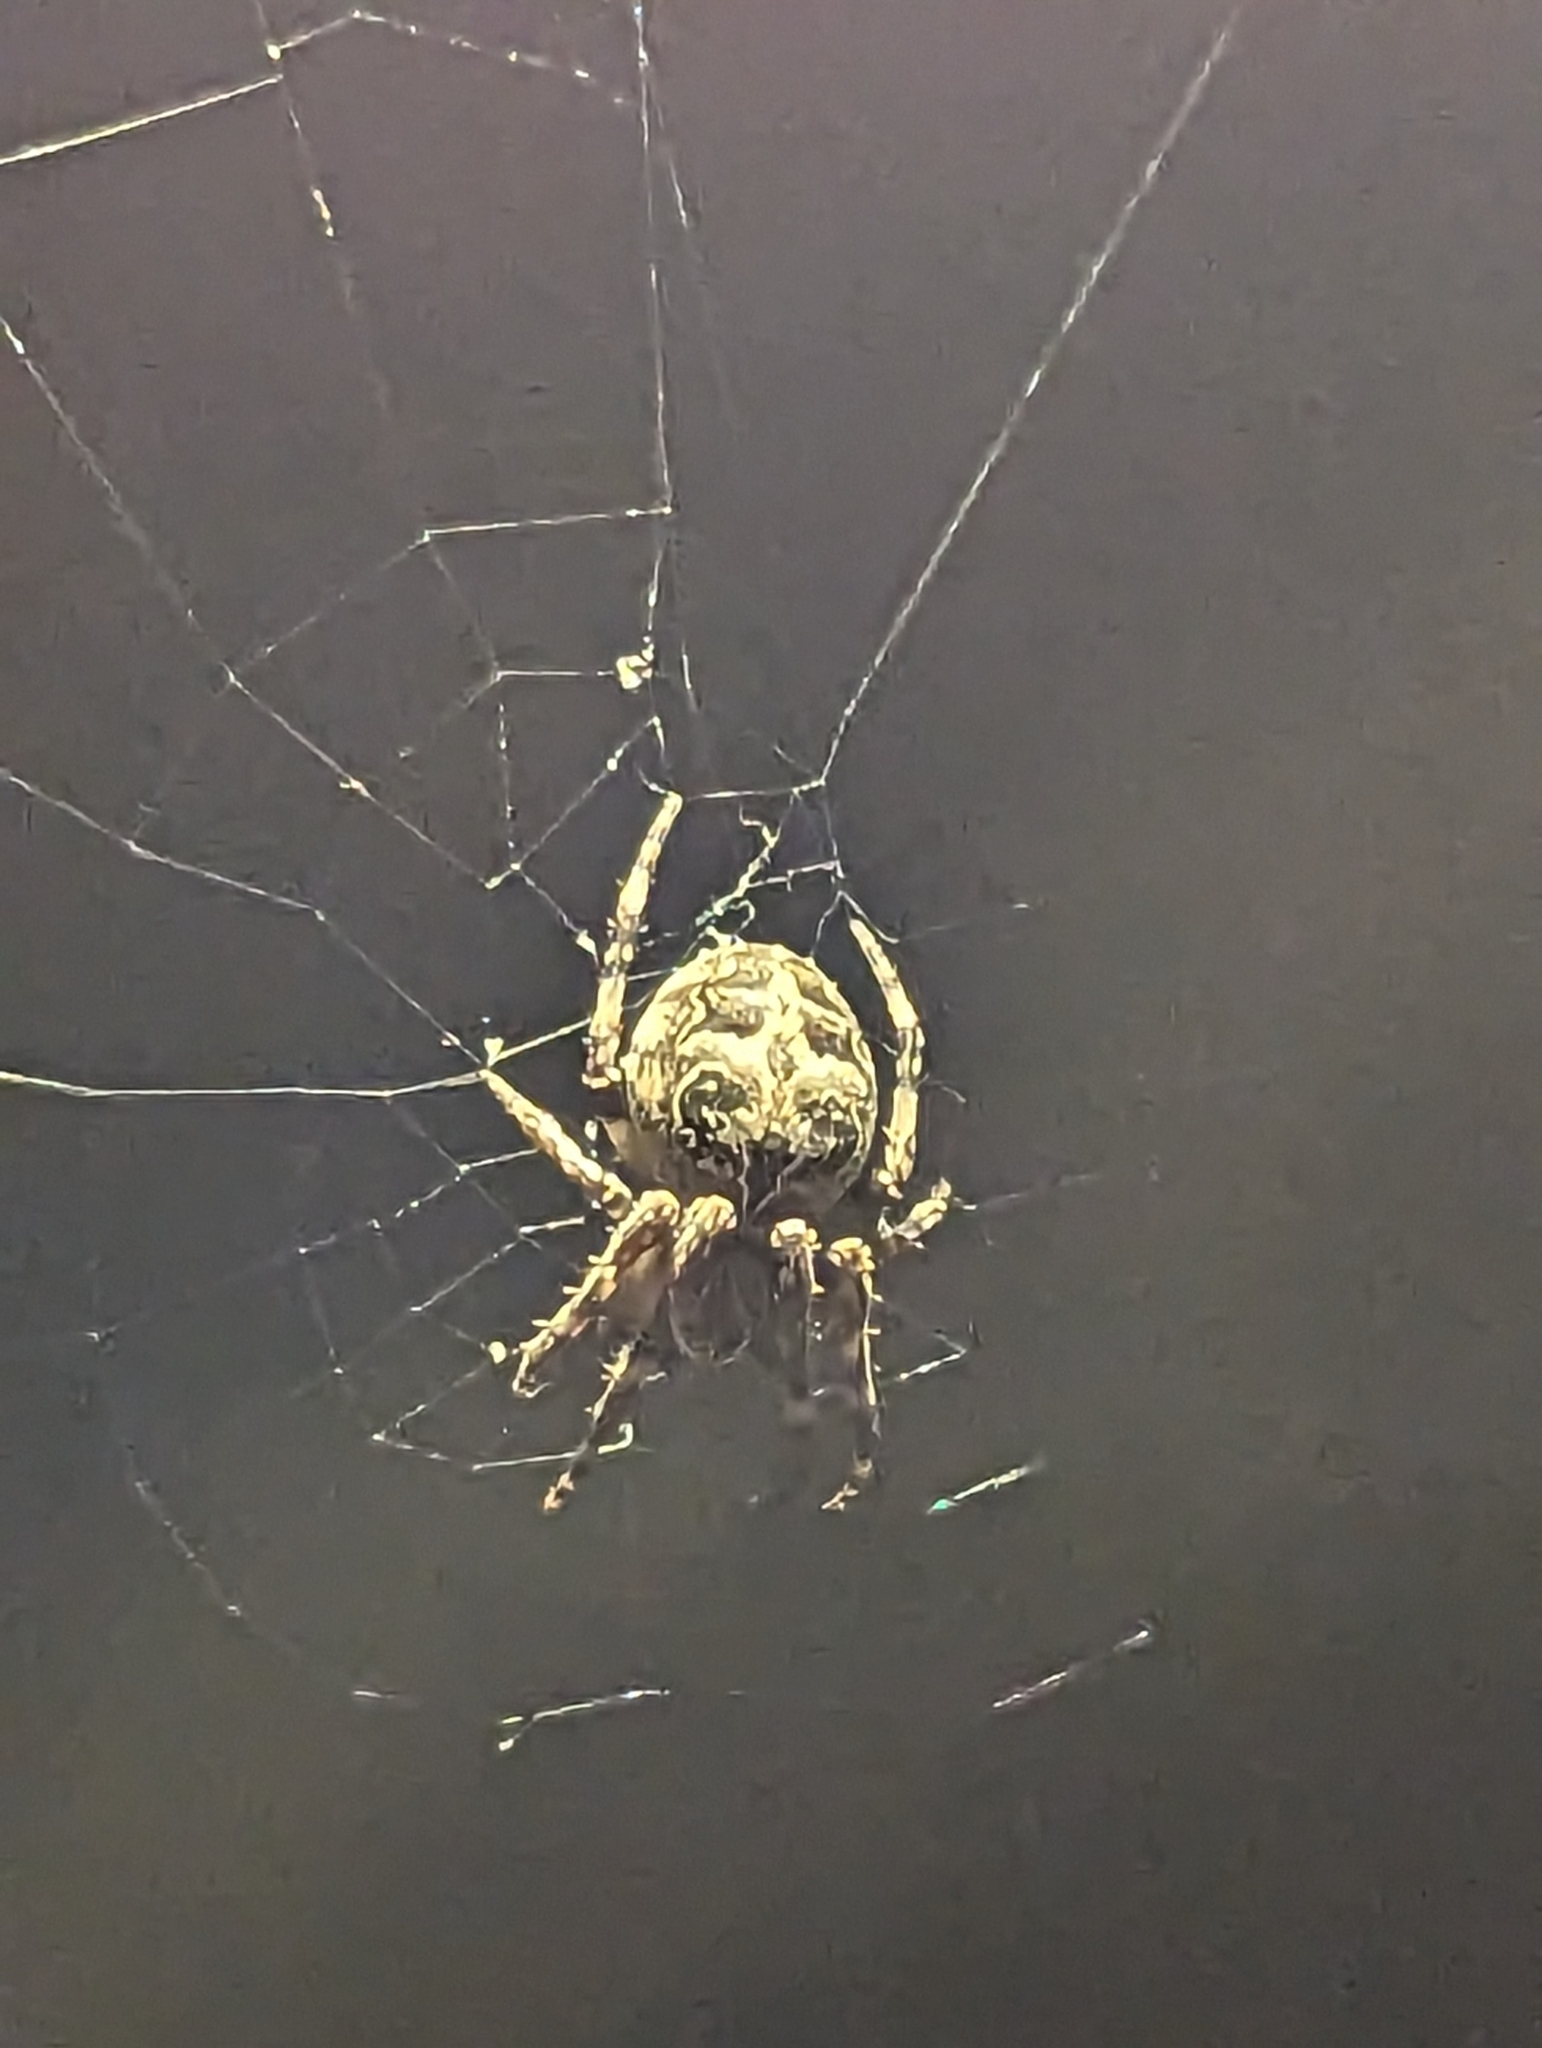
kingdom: Animalia
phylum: Arthropoda
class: Arachnida
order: Araneae
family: Araneidae
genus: Larinioides
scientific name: Larinioides sclopetarius
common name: Bridge orbweaver
